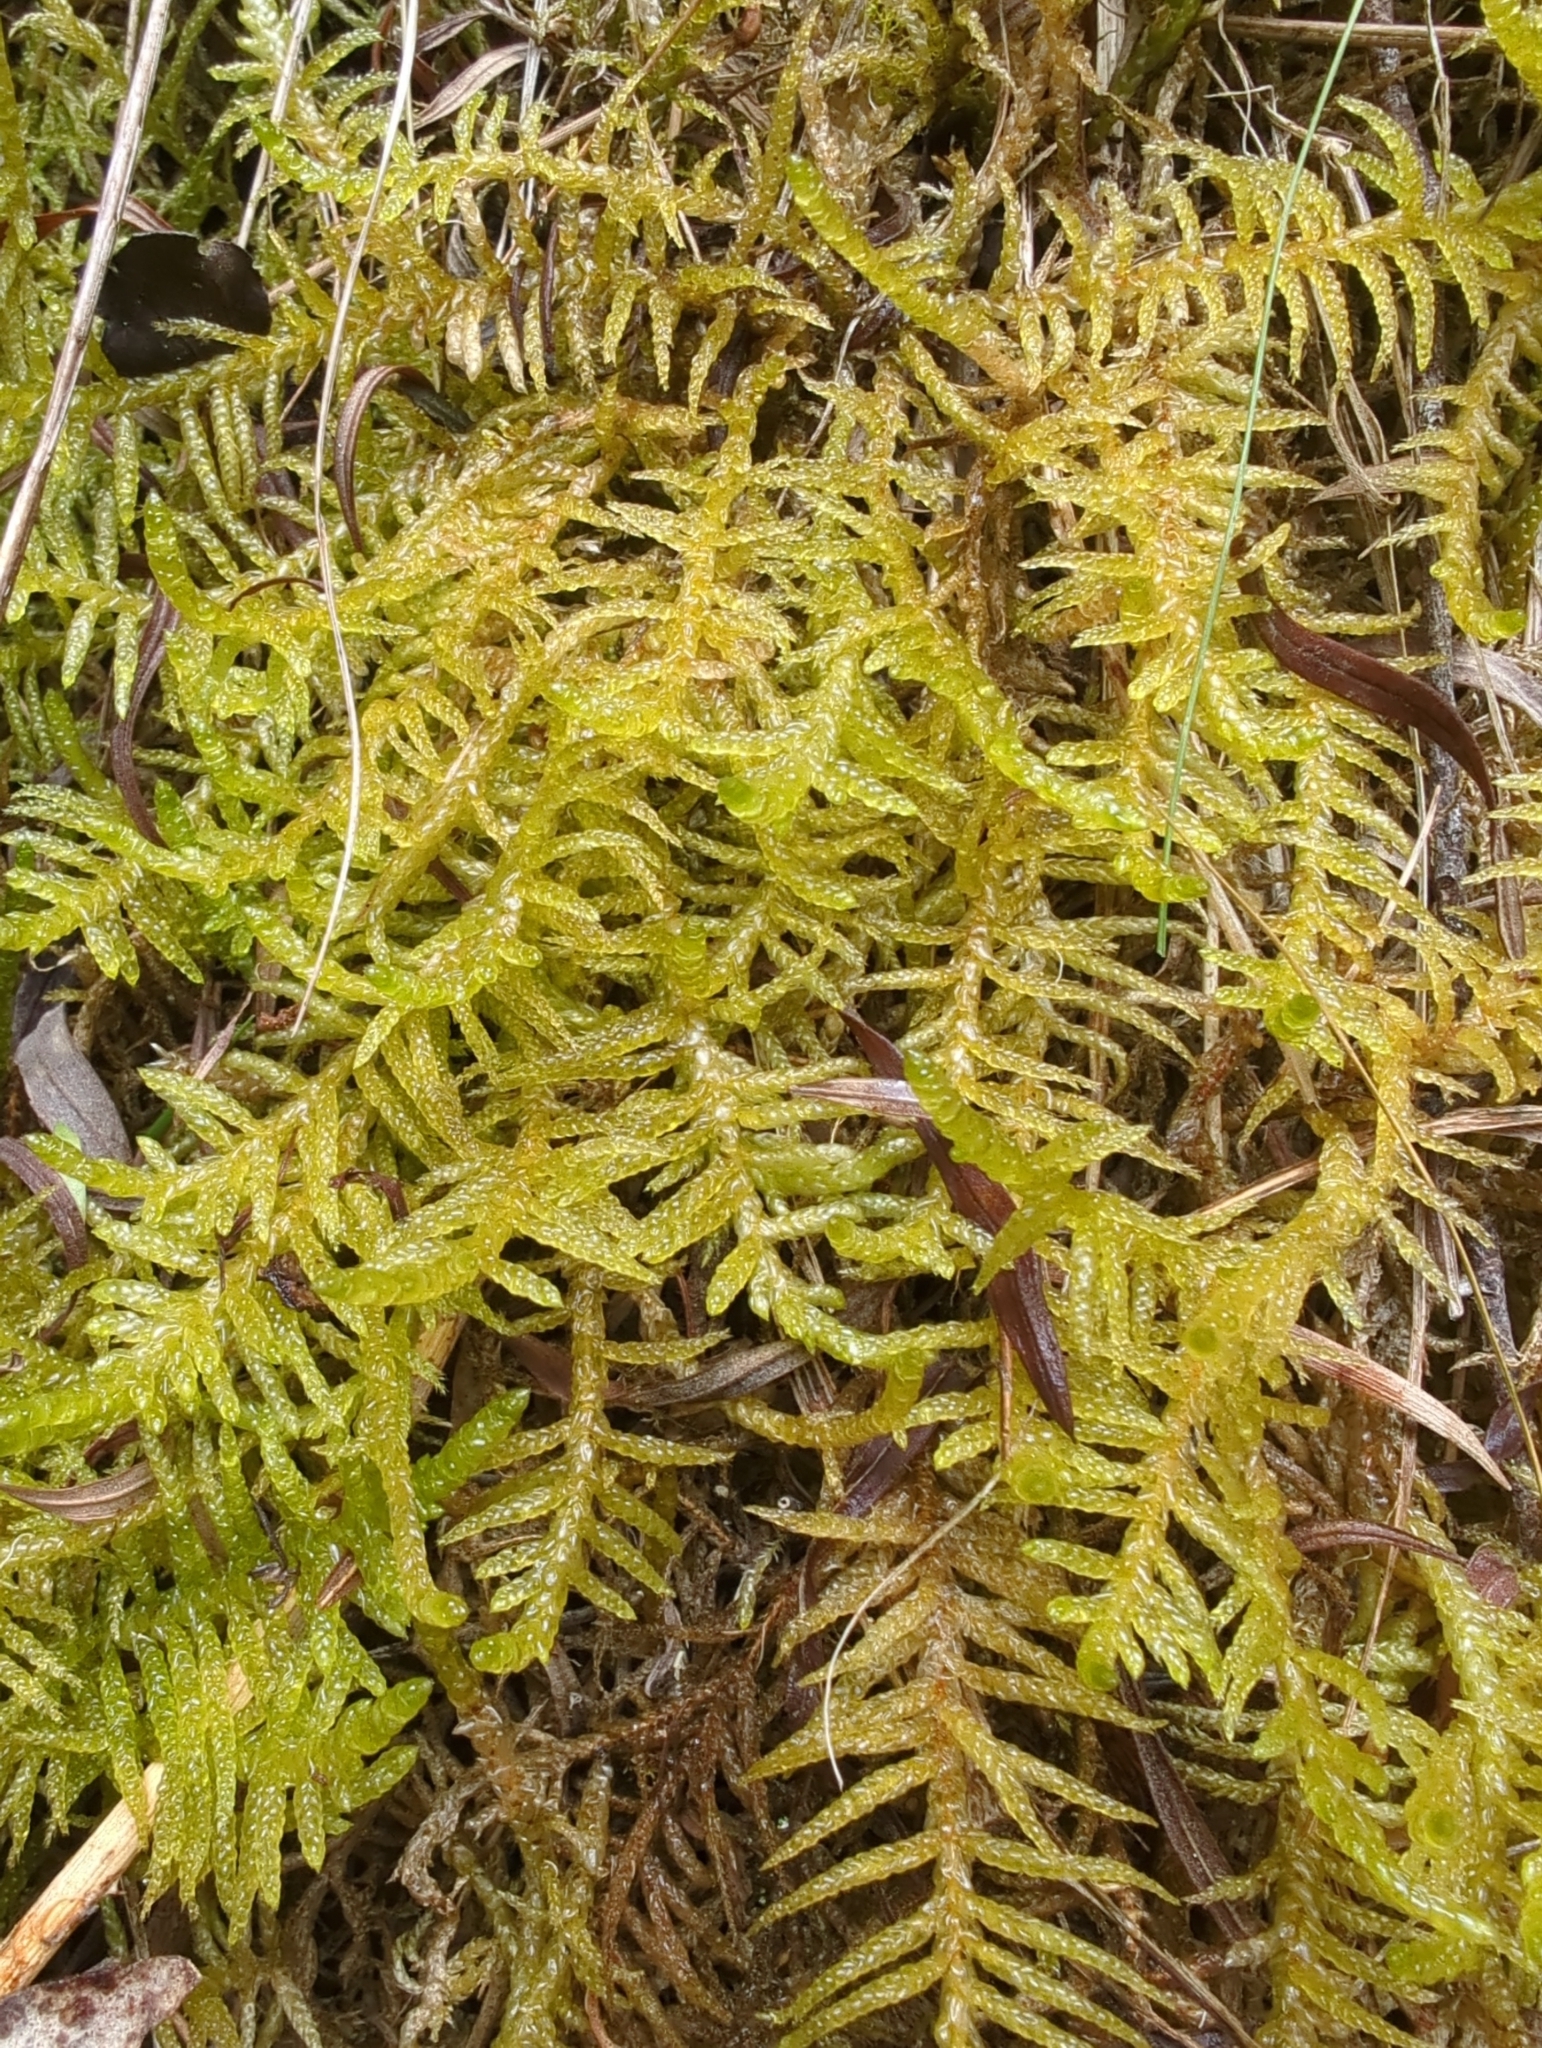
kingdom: Plantae
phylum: Bryophyta
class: Bryopsida
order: Hypnales
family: Brachytheciaceae
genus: Pseudoscleropodium
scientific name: Pseudoscleropodium purum
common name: Neat feather-moss
